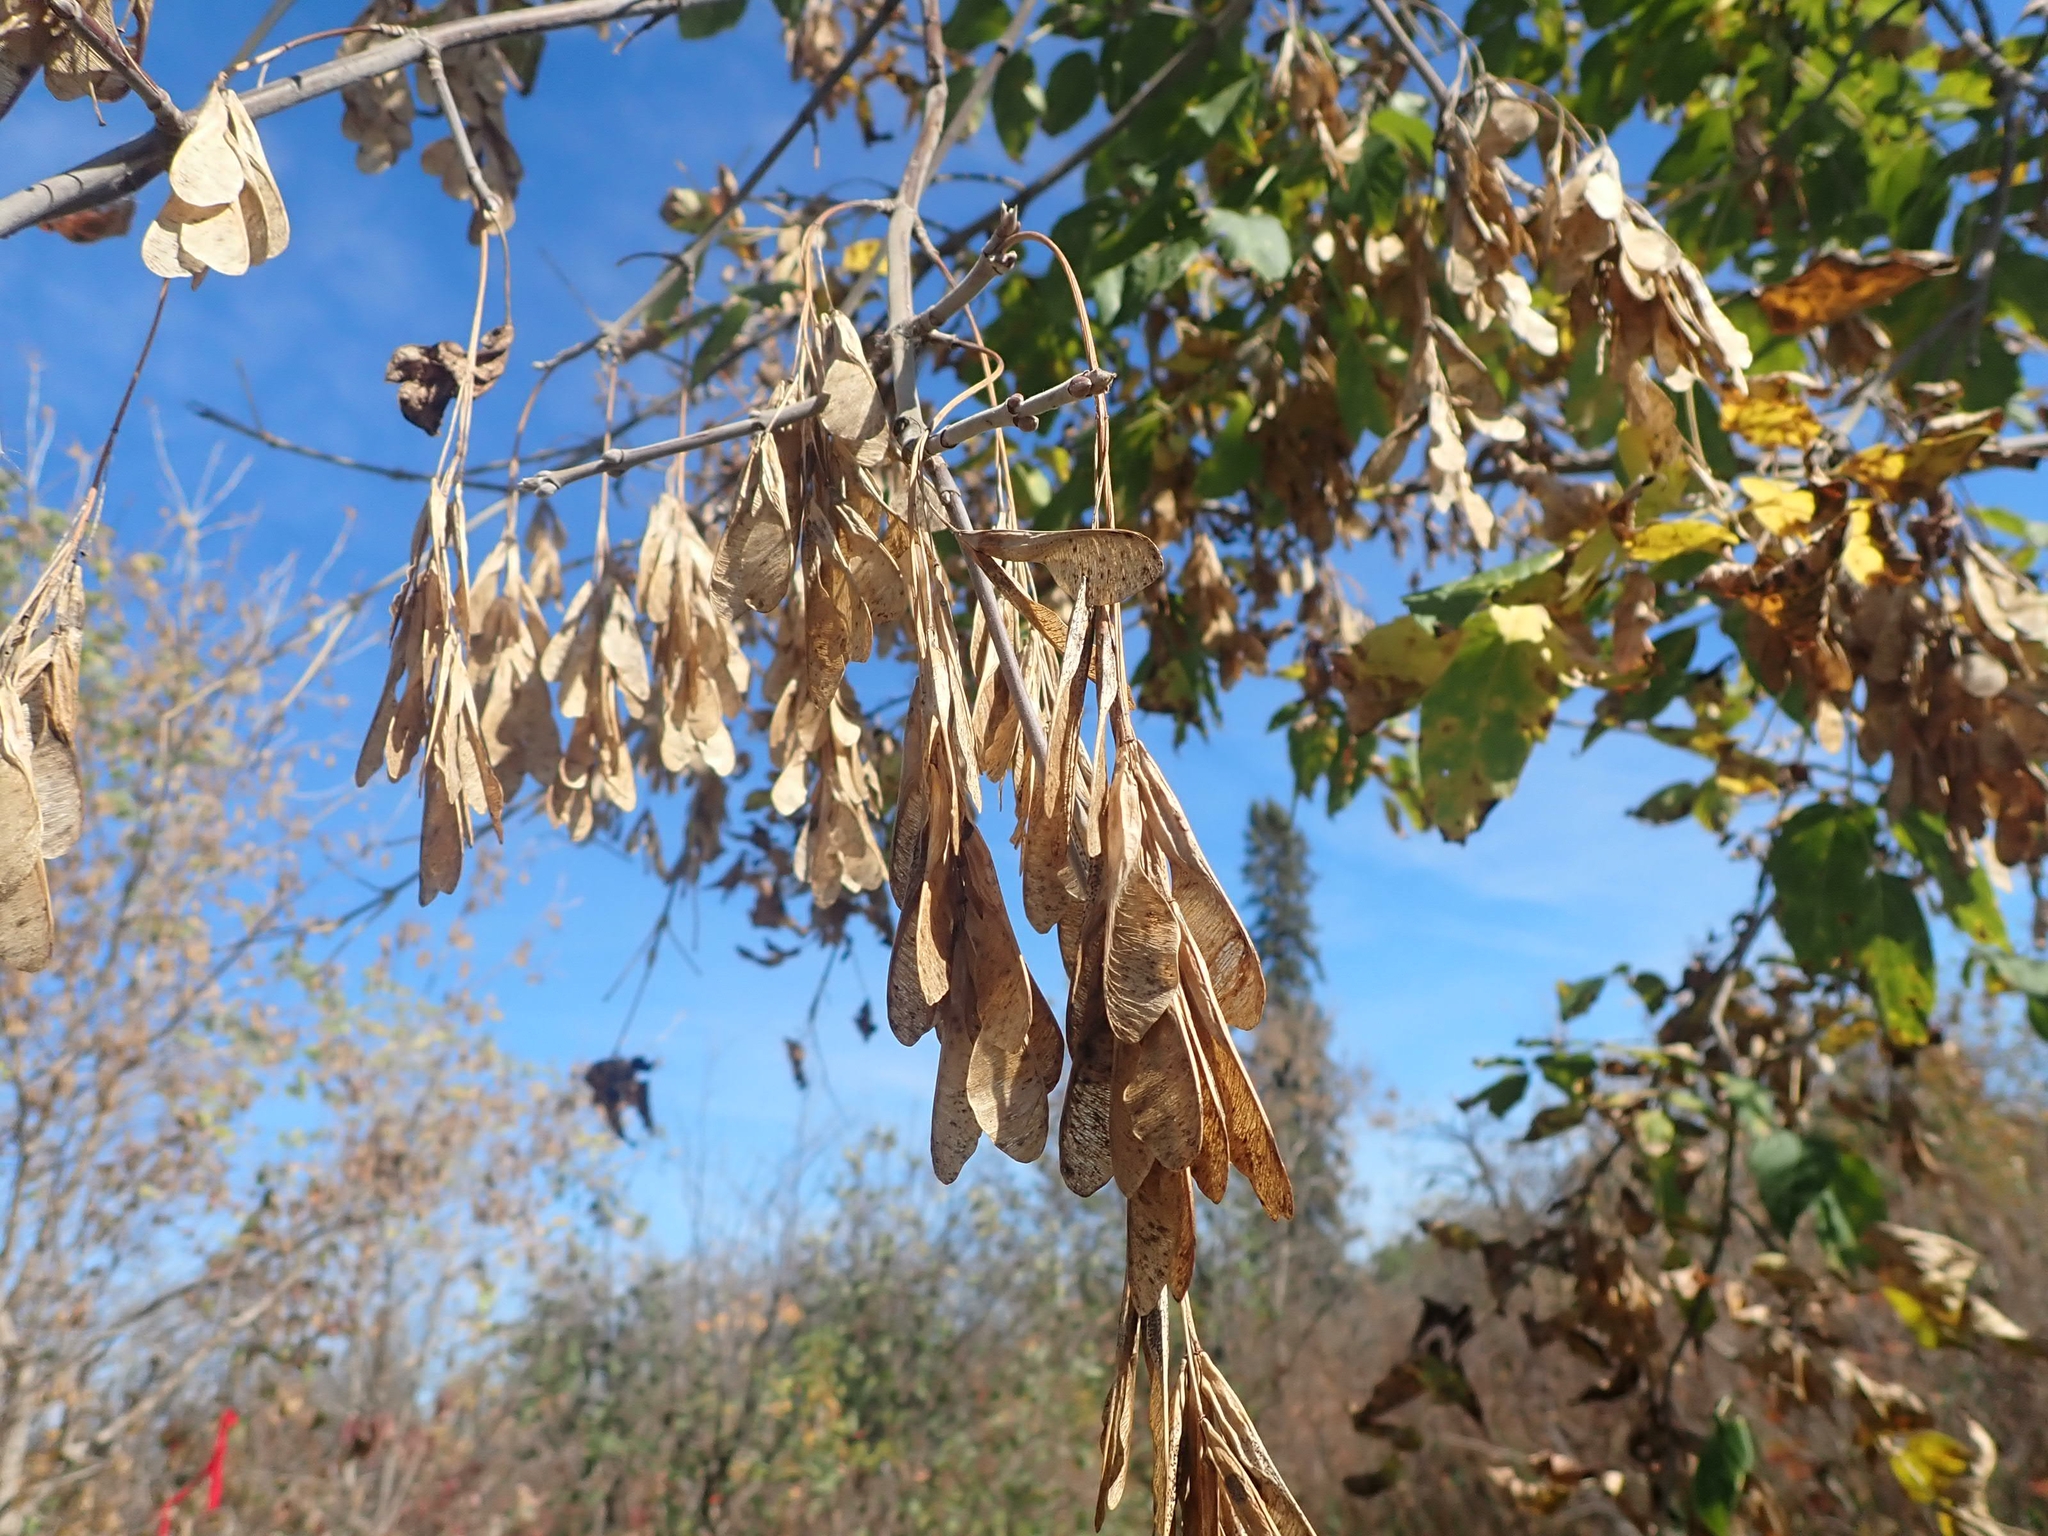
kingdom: Plantae
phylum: Tracheophyta
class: Magnoliopsida
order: Sapindales
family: Sapindaceae
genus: Acer
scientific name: Acer negundo
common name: Ashleaf maple
